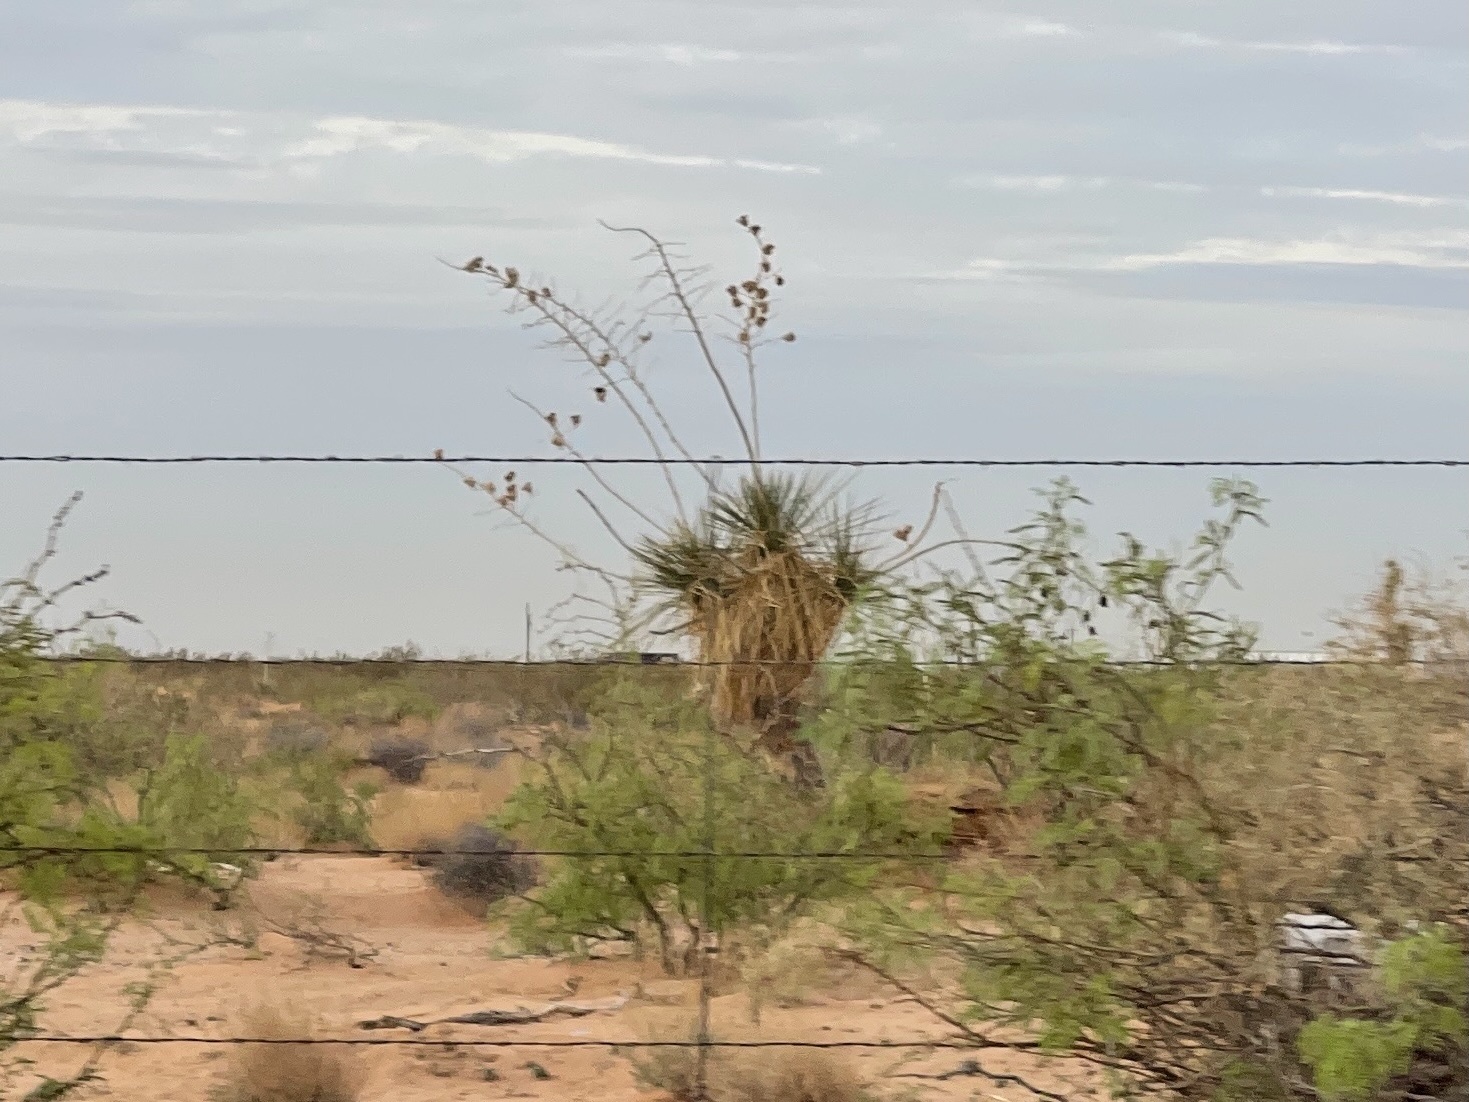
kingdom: Plantae
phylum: Tracheophyta
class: Liliopsida
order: Asparagales
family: Asparagaceae
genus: Yucca
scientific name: Yucca elata
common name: Palmella
